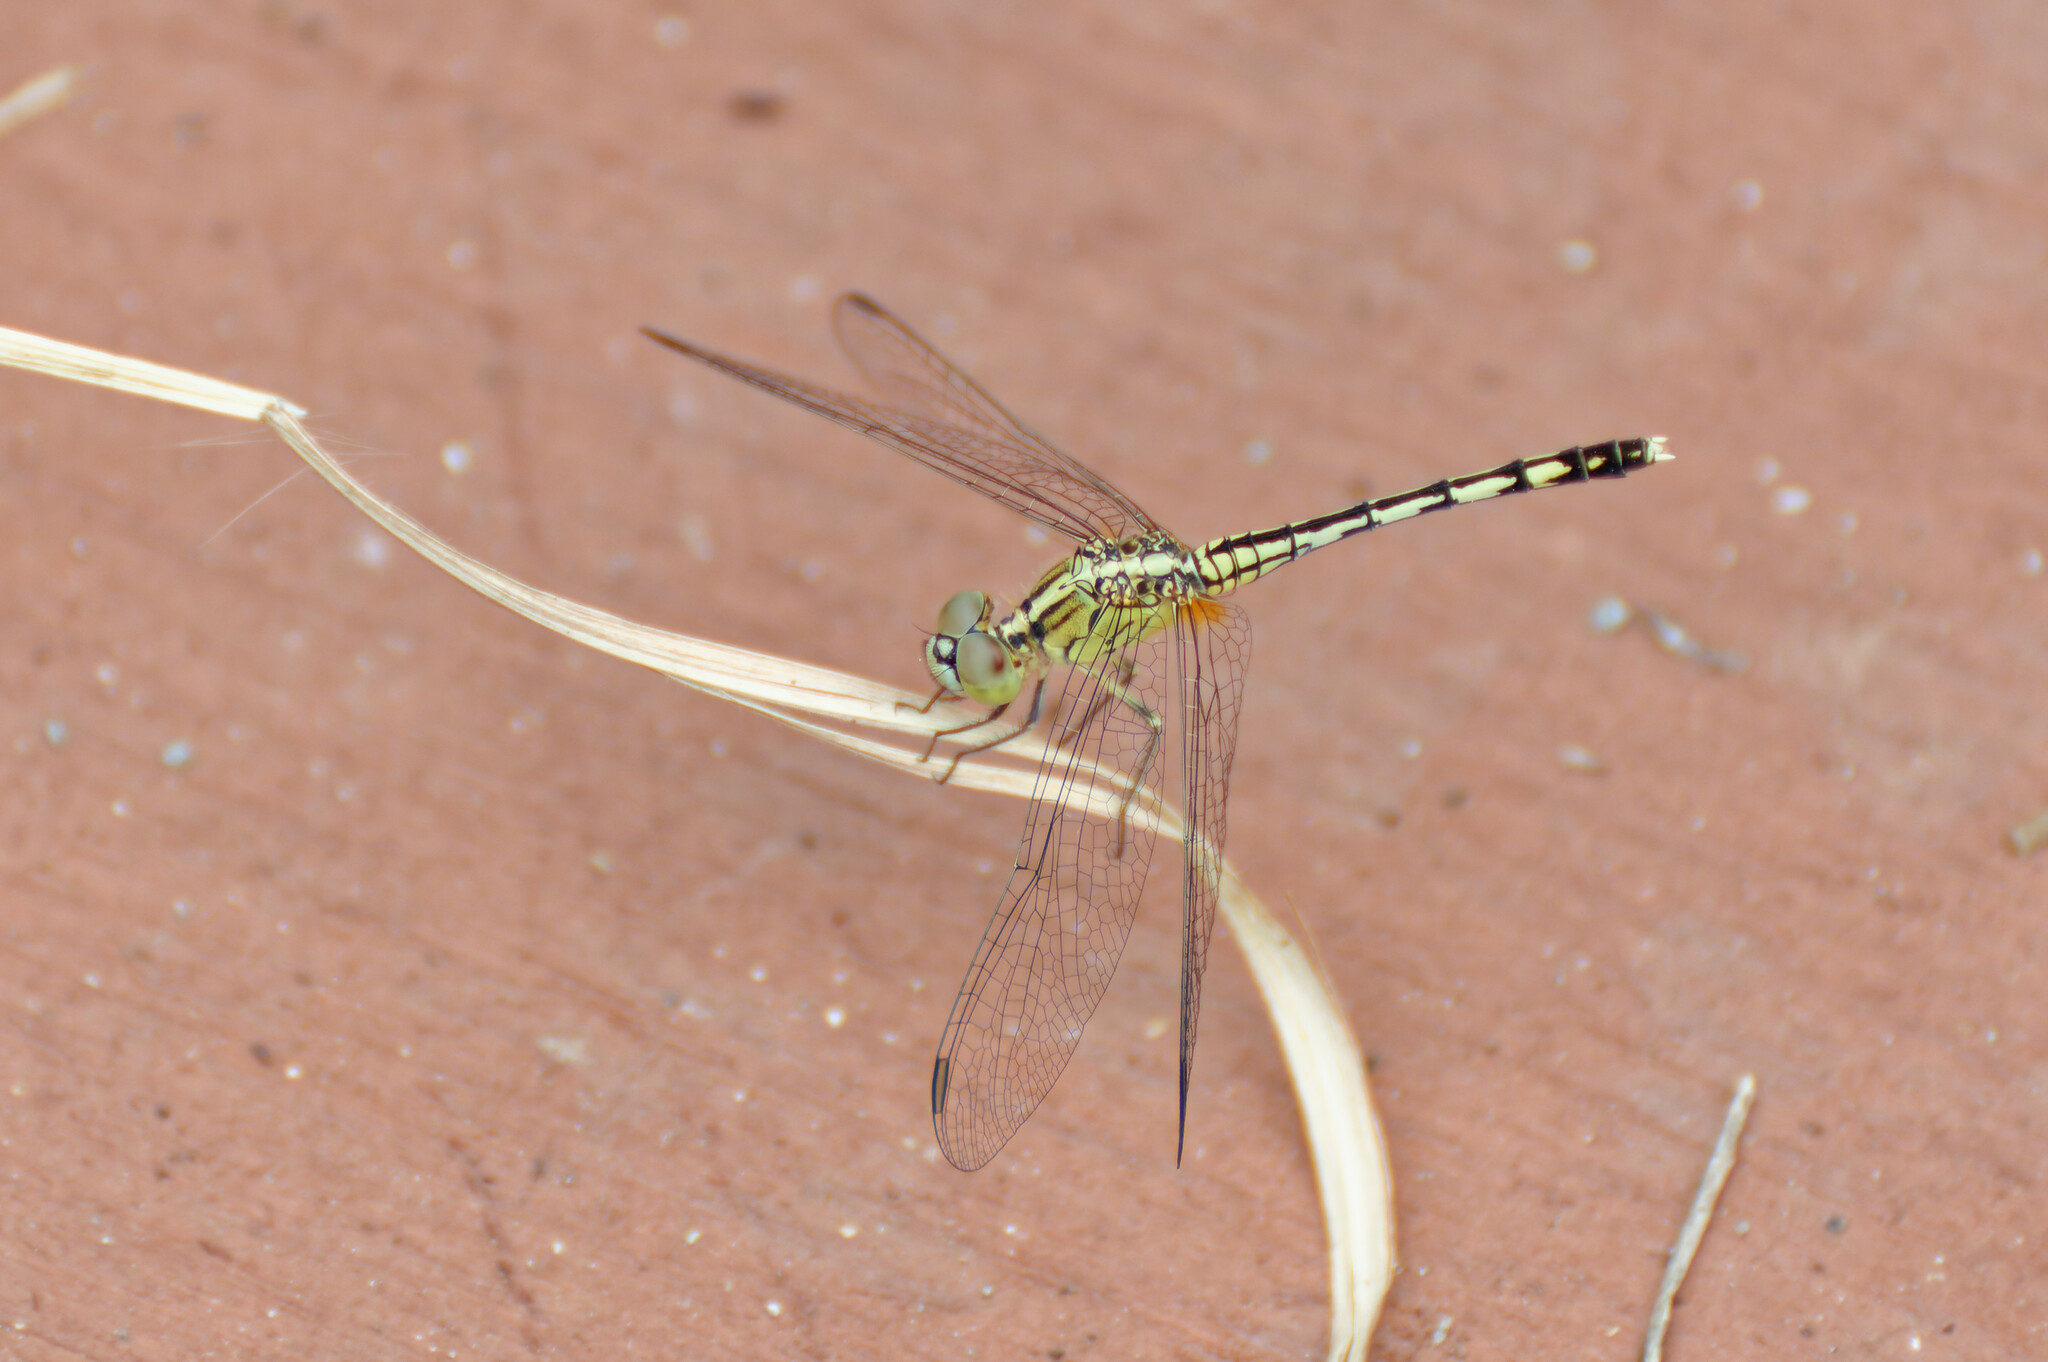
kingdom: Animalia
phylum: Arthropoda
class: Insecta
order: Odonata
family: Libellulidae
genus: Diplacodes
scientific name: Diplacodes trivialis
